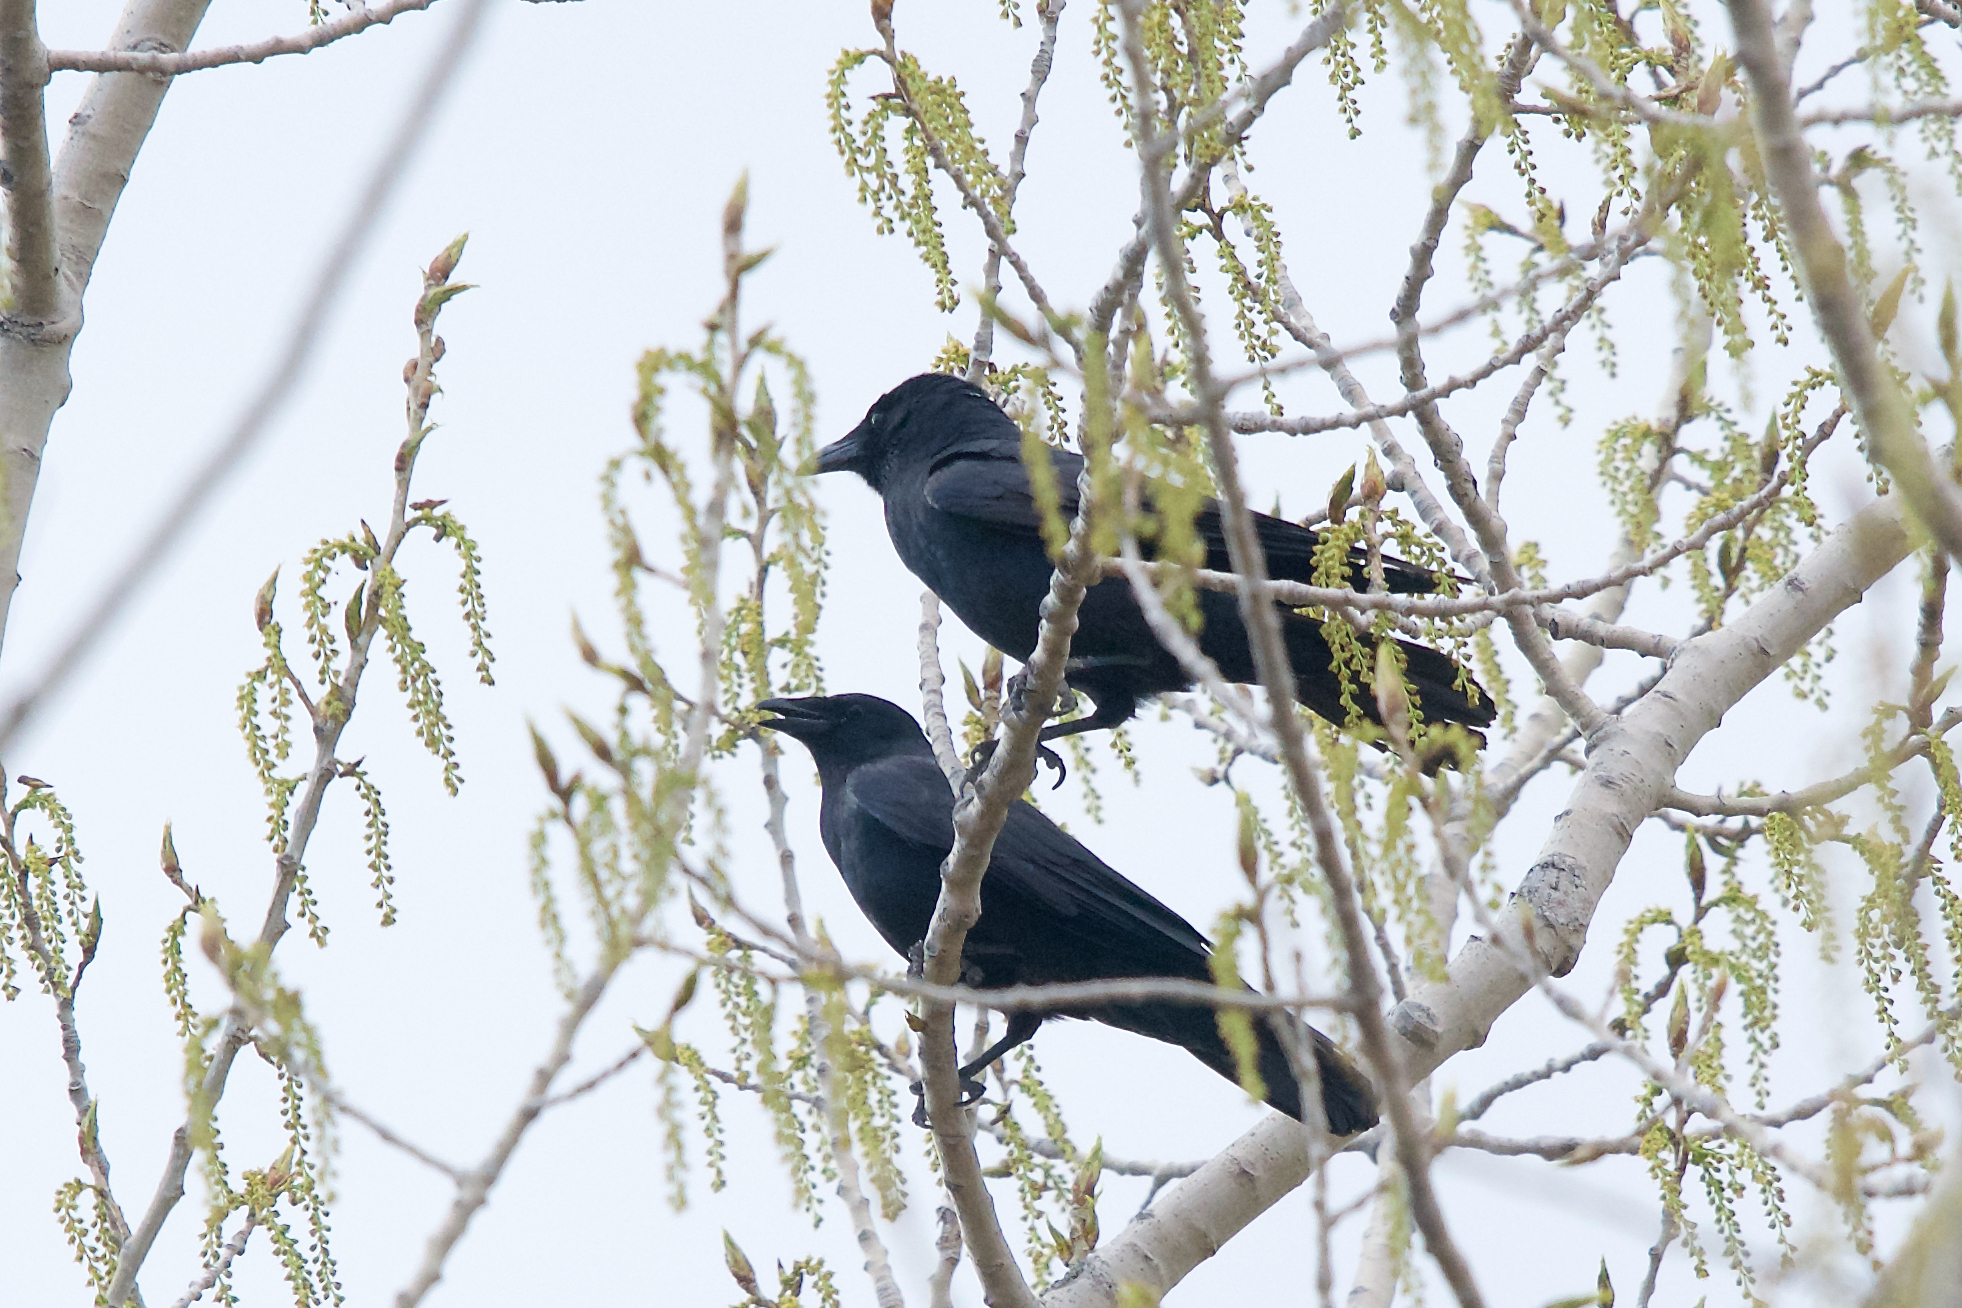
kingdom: Animalia
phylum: Chordata
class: Aves
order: Passeriformes
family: Corvidae
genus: Corvus
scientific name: Corvus ossifragus
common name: Fish crow
